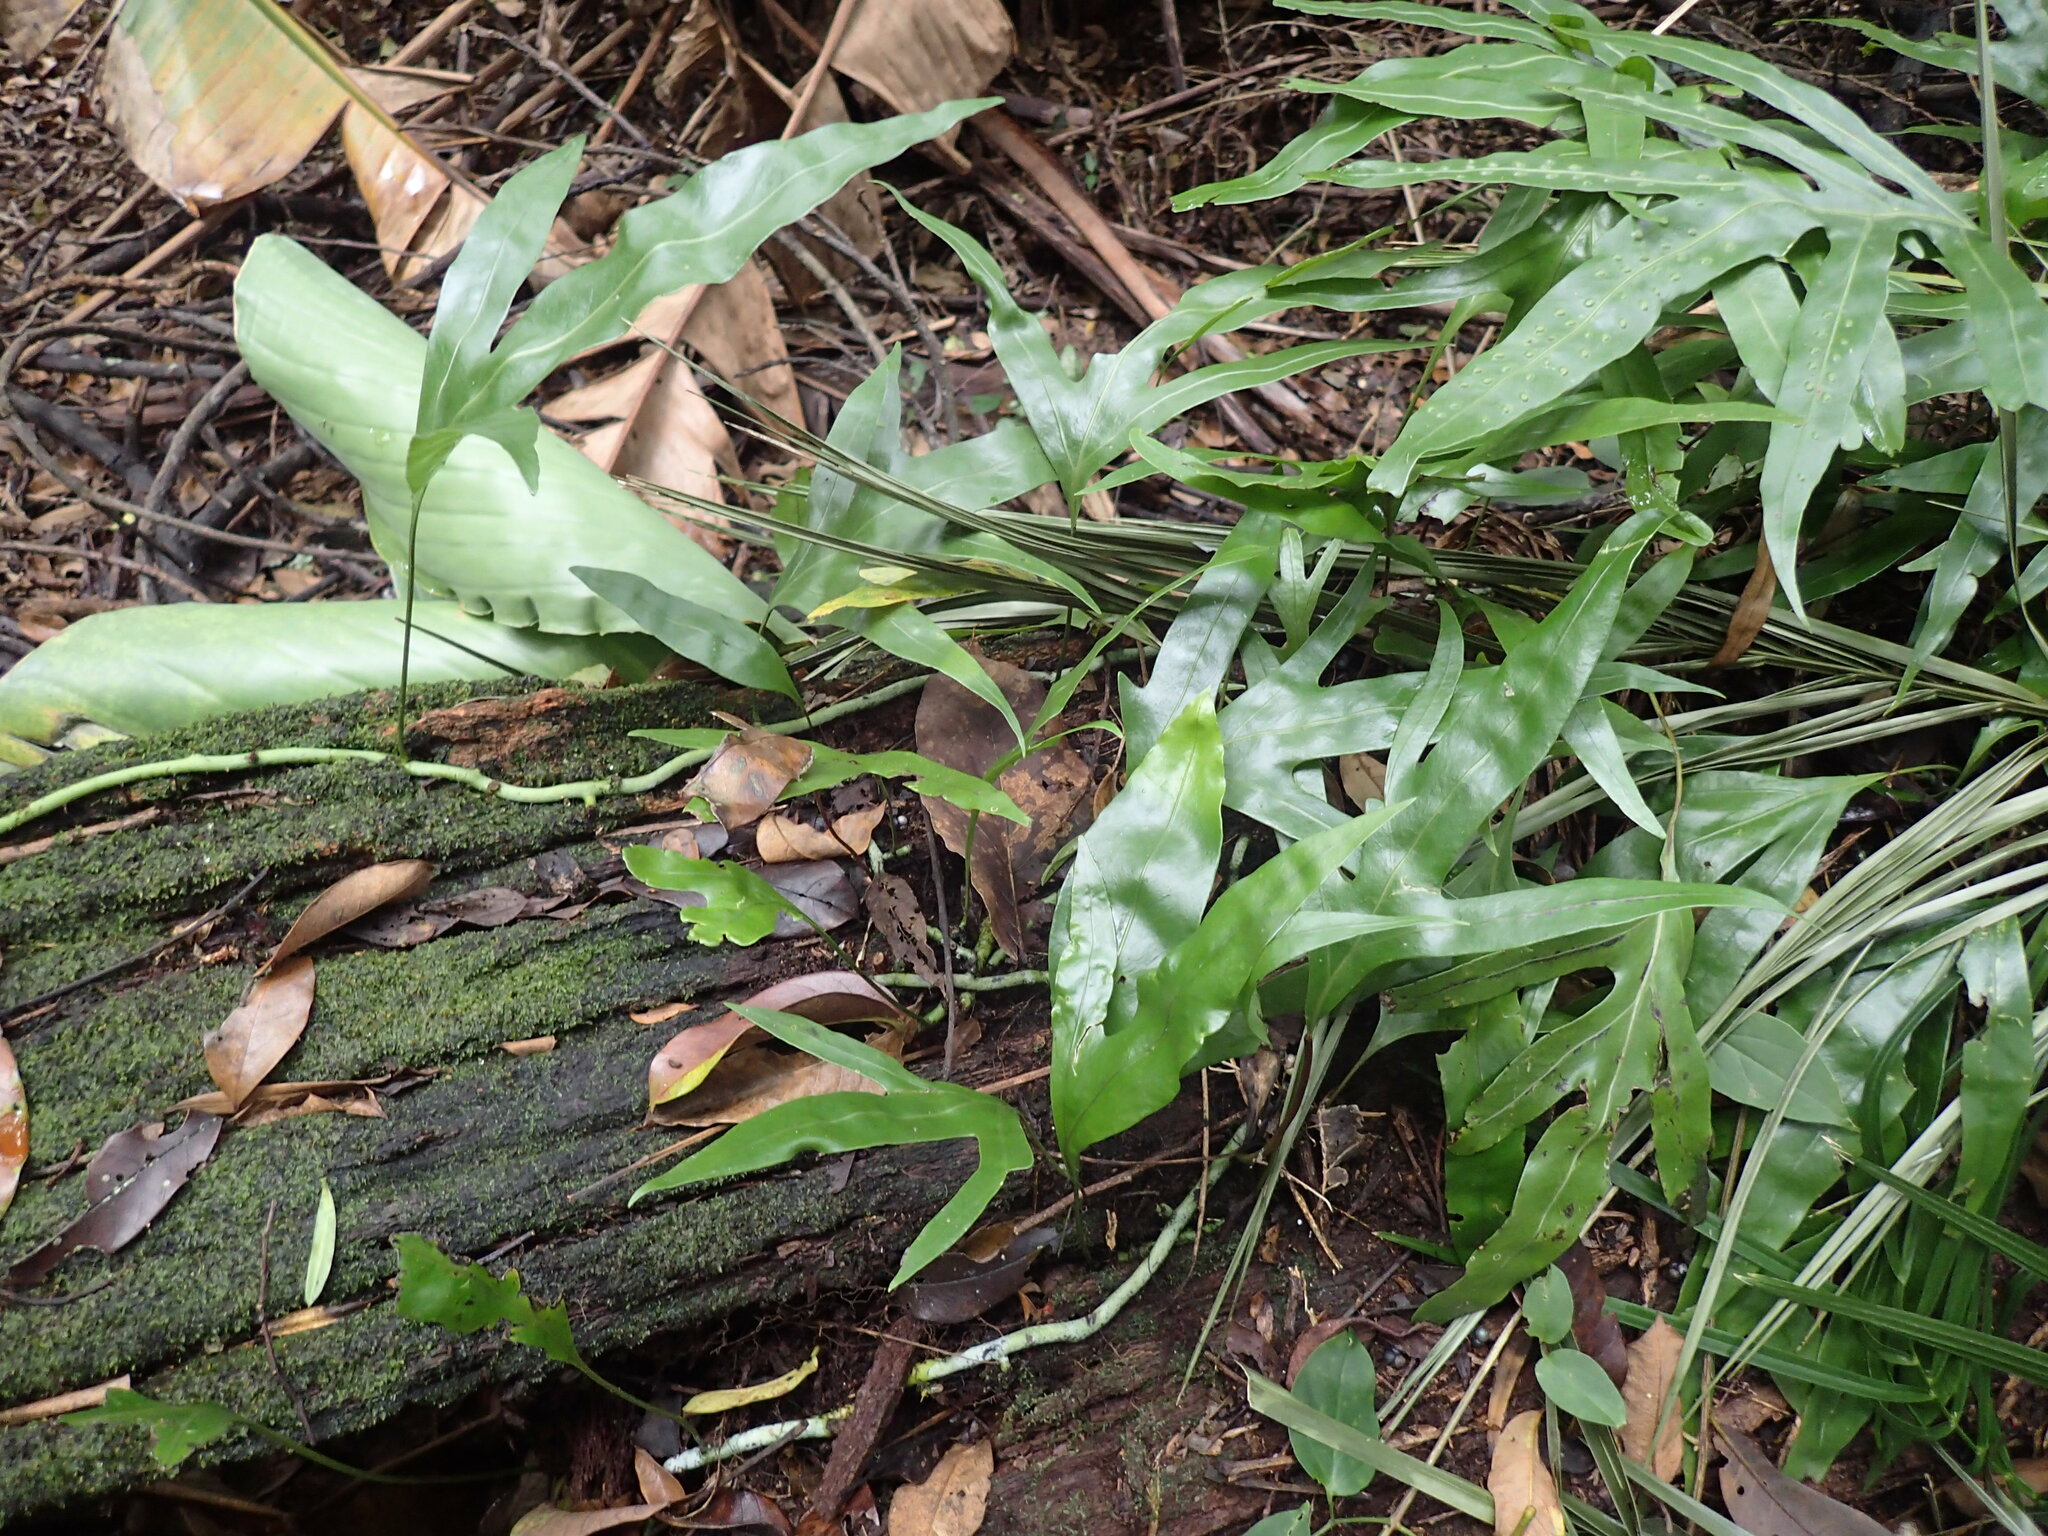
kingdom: Plantae
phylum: Tracheophyta
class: Polypodiopsida
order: Polypodiales
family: Polypodiaceae
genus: Microsorum
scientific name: Microsorum scolopendria
